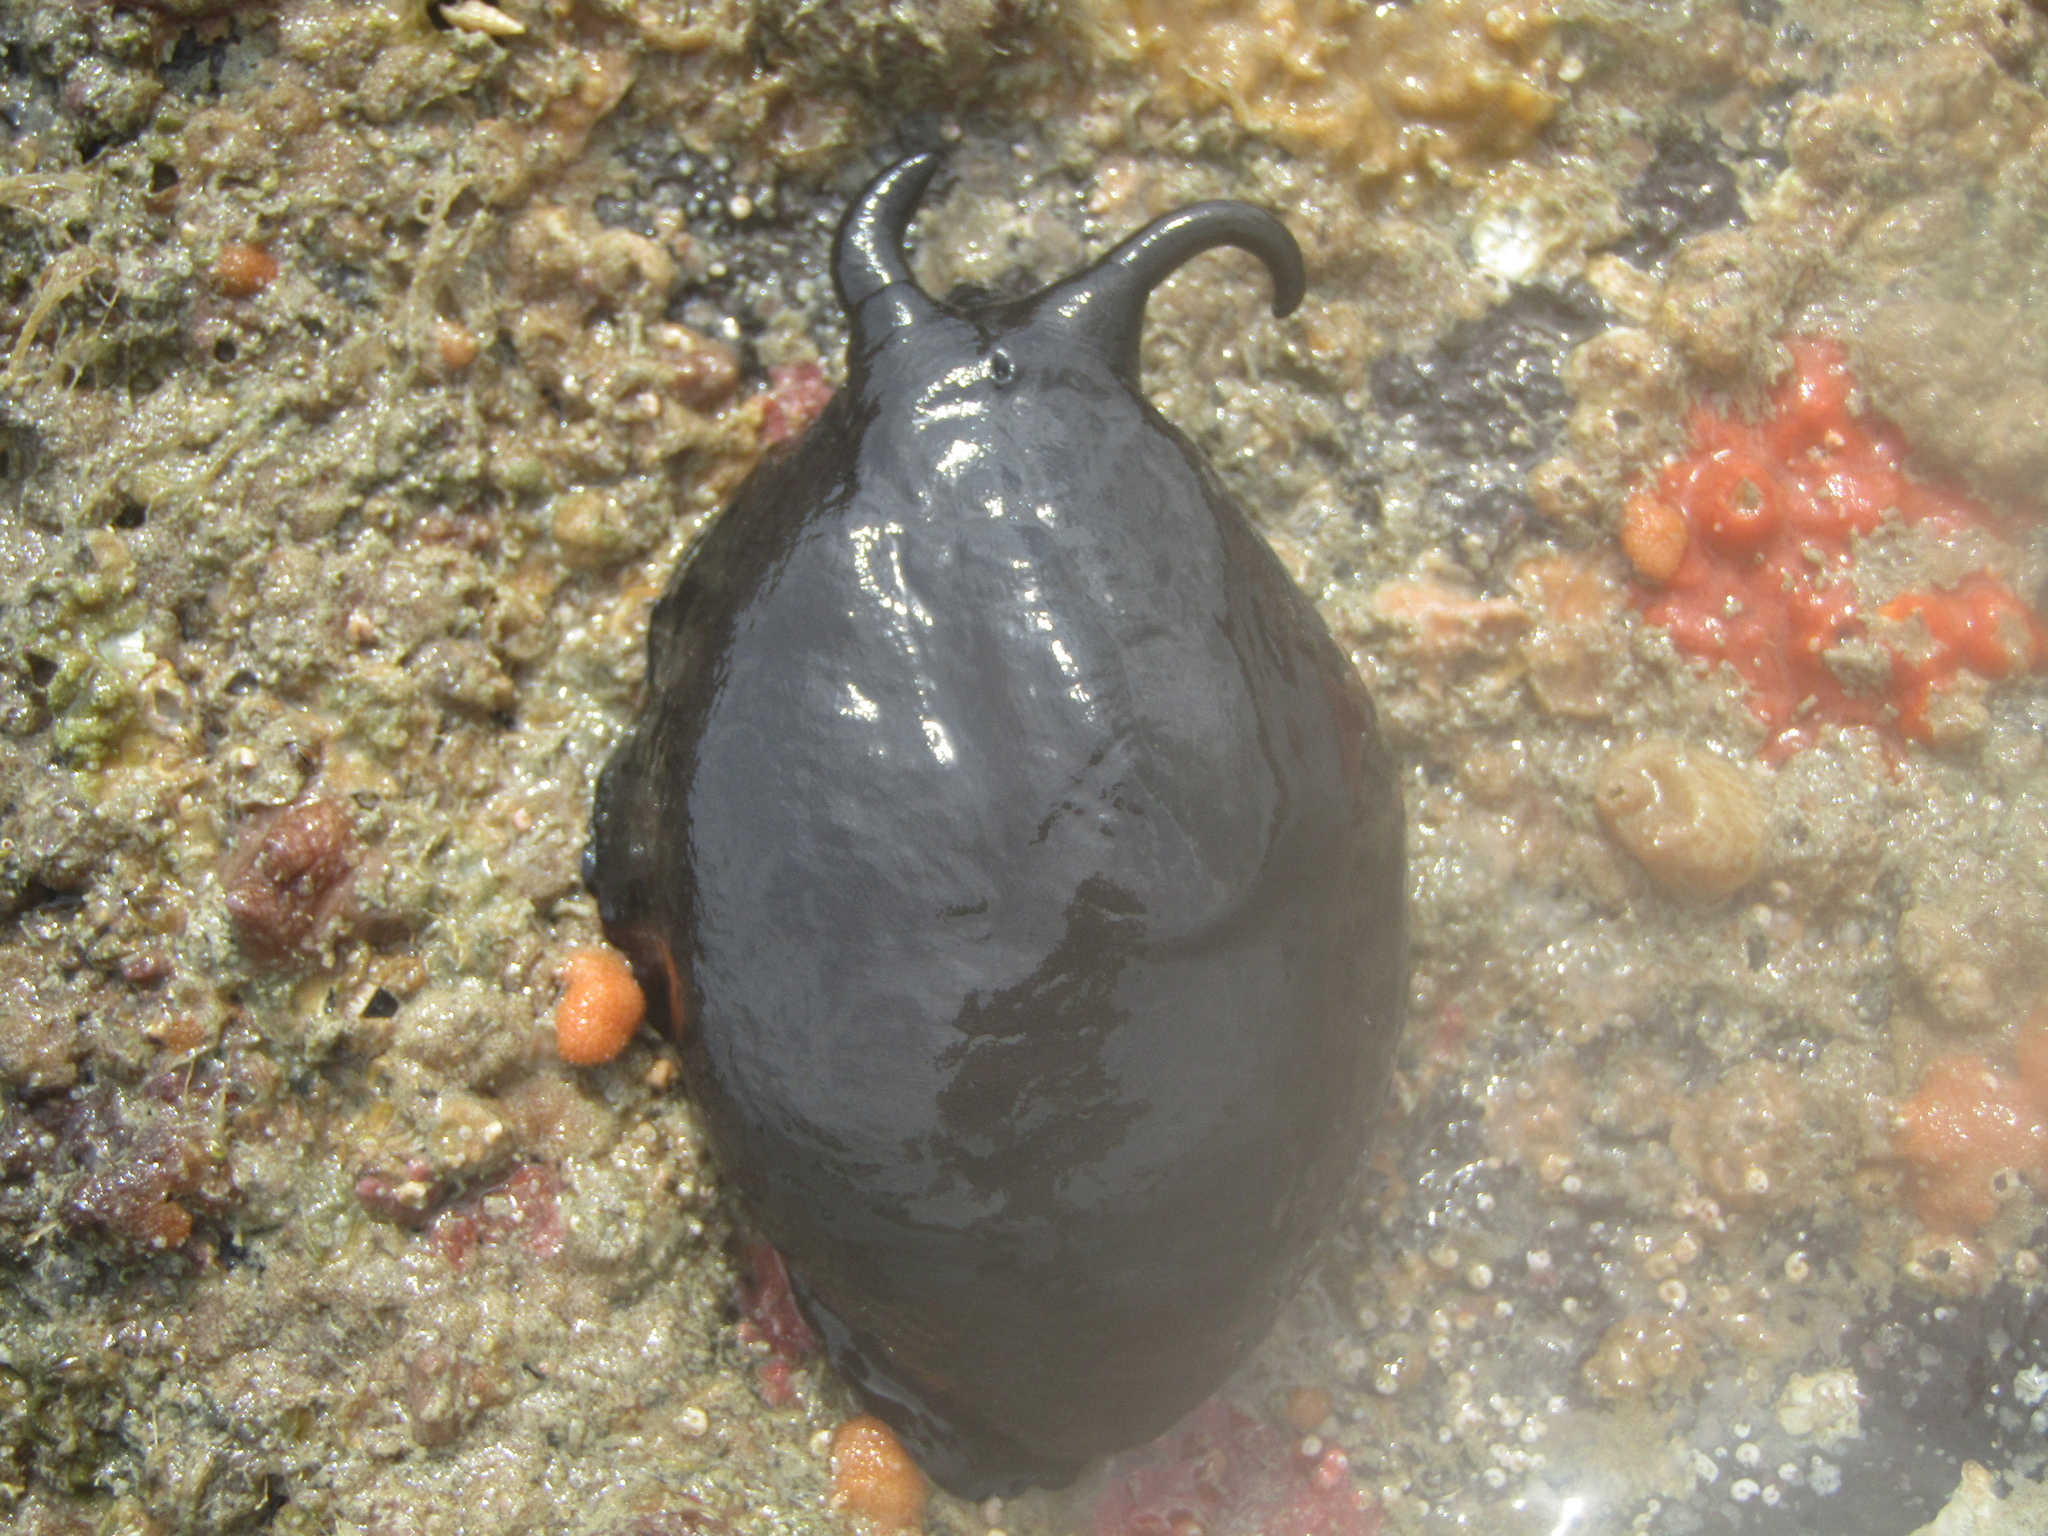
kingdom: Animalia
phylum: Mollusca
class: Gastropoda
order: Lepetellida
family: Fissurellidae
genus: Scutus
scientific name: Scutus breviculus
